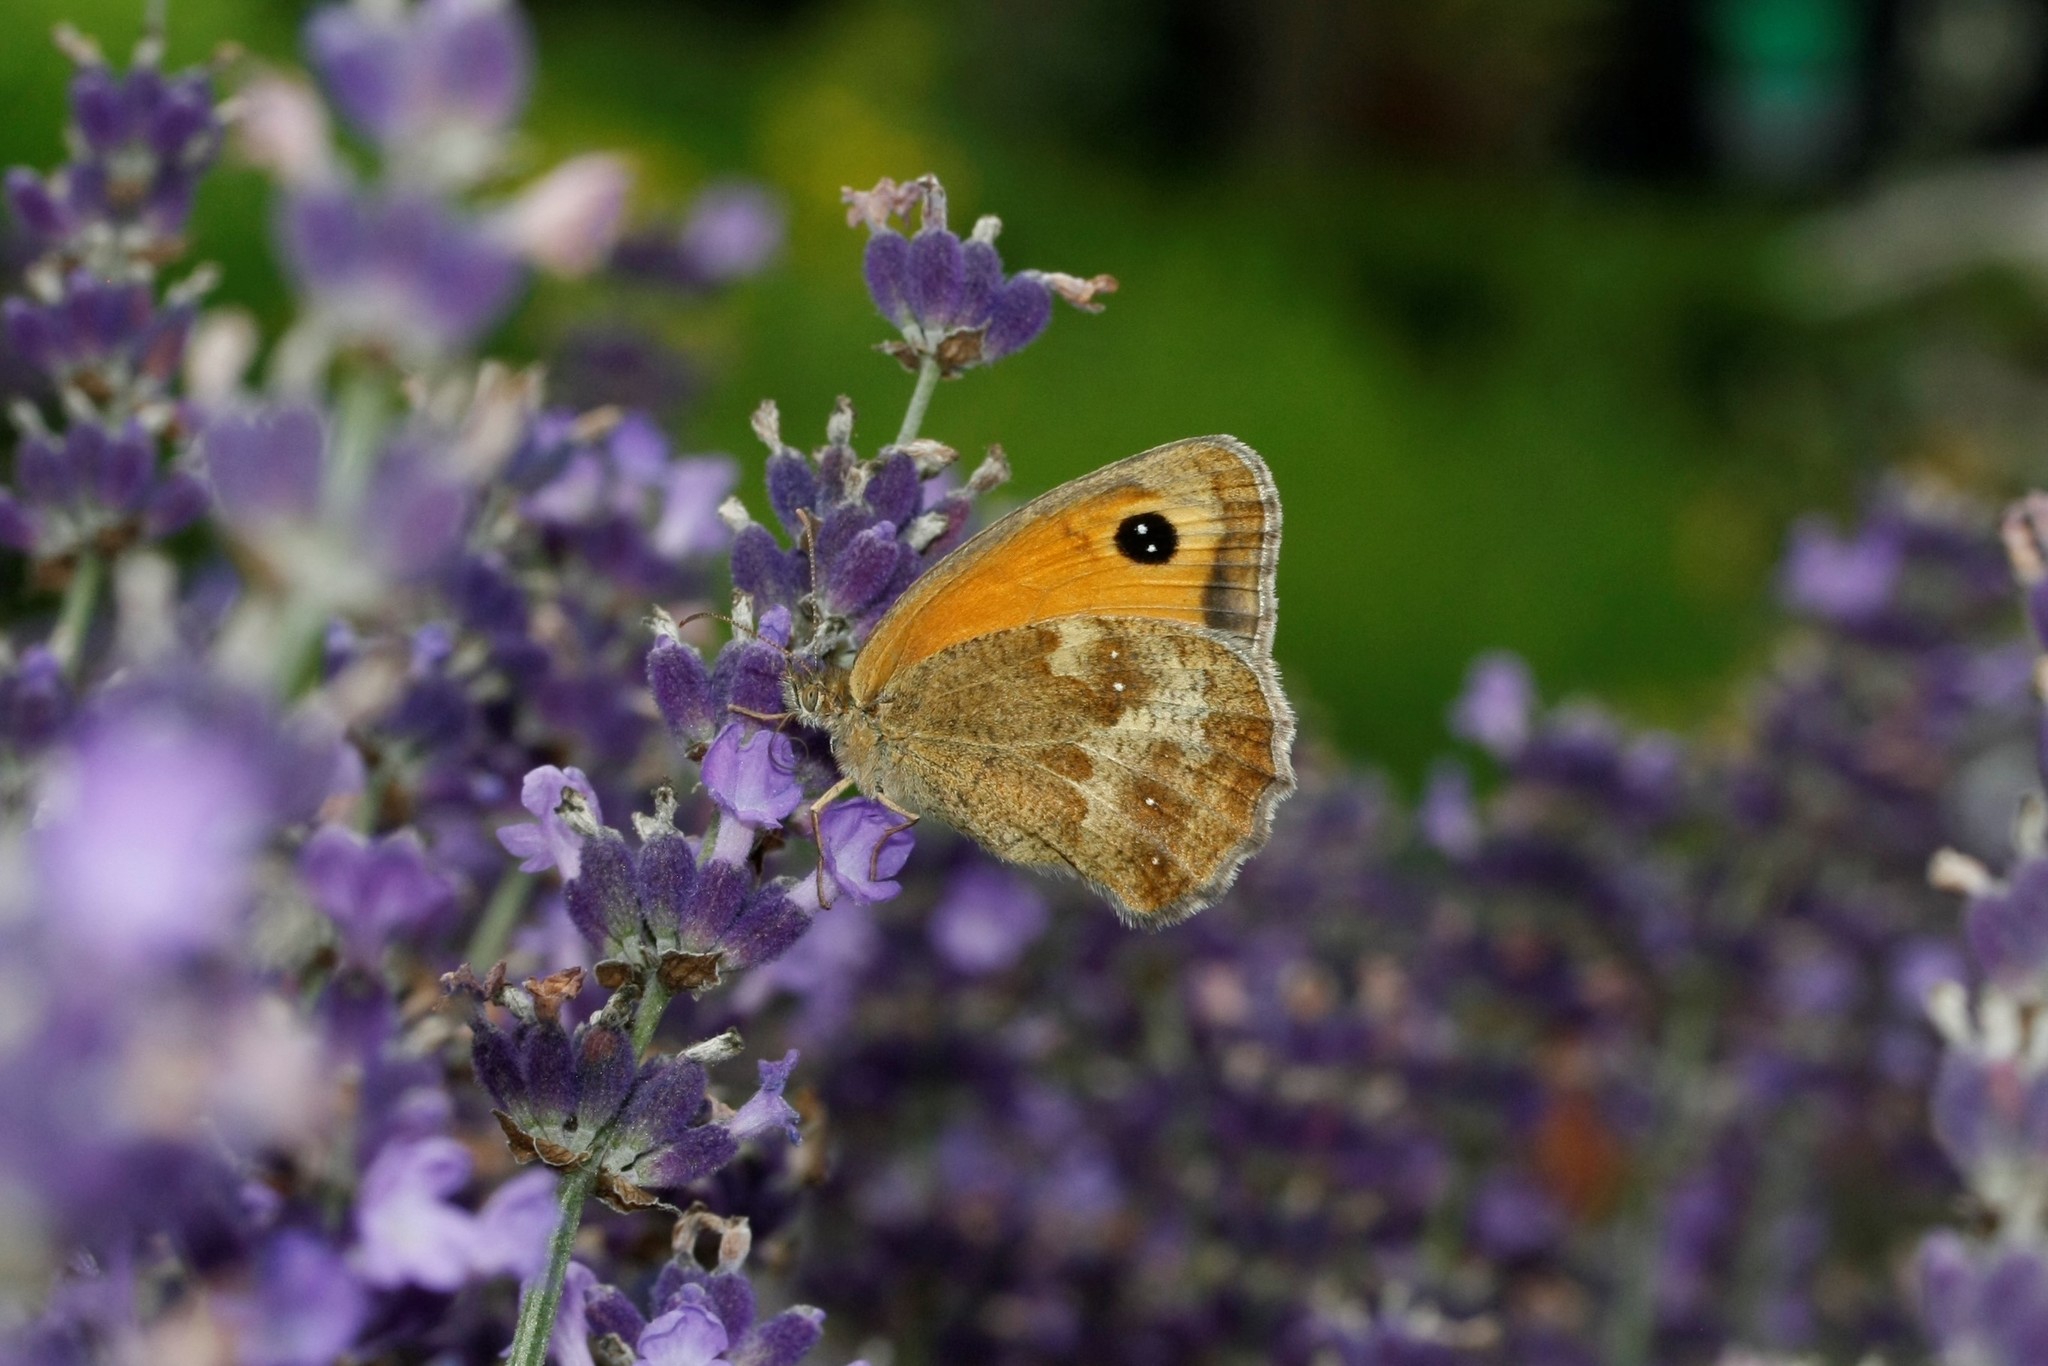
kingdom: Animalia
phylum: Arthropoda
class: Insecta
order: Lepidoptera
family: Nymphalidae
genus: Pyronia
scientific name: Pyronia tithonus
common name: Gatekeeper
